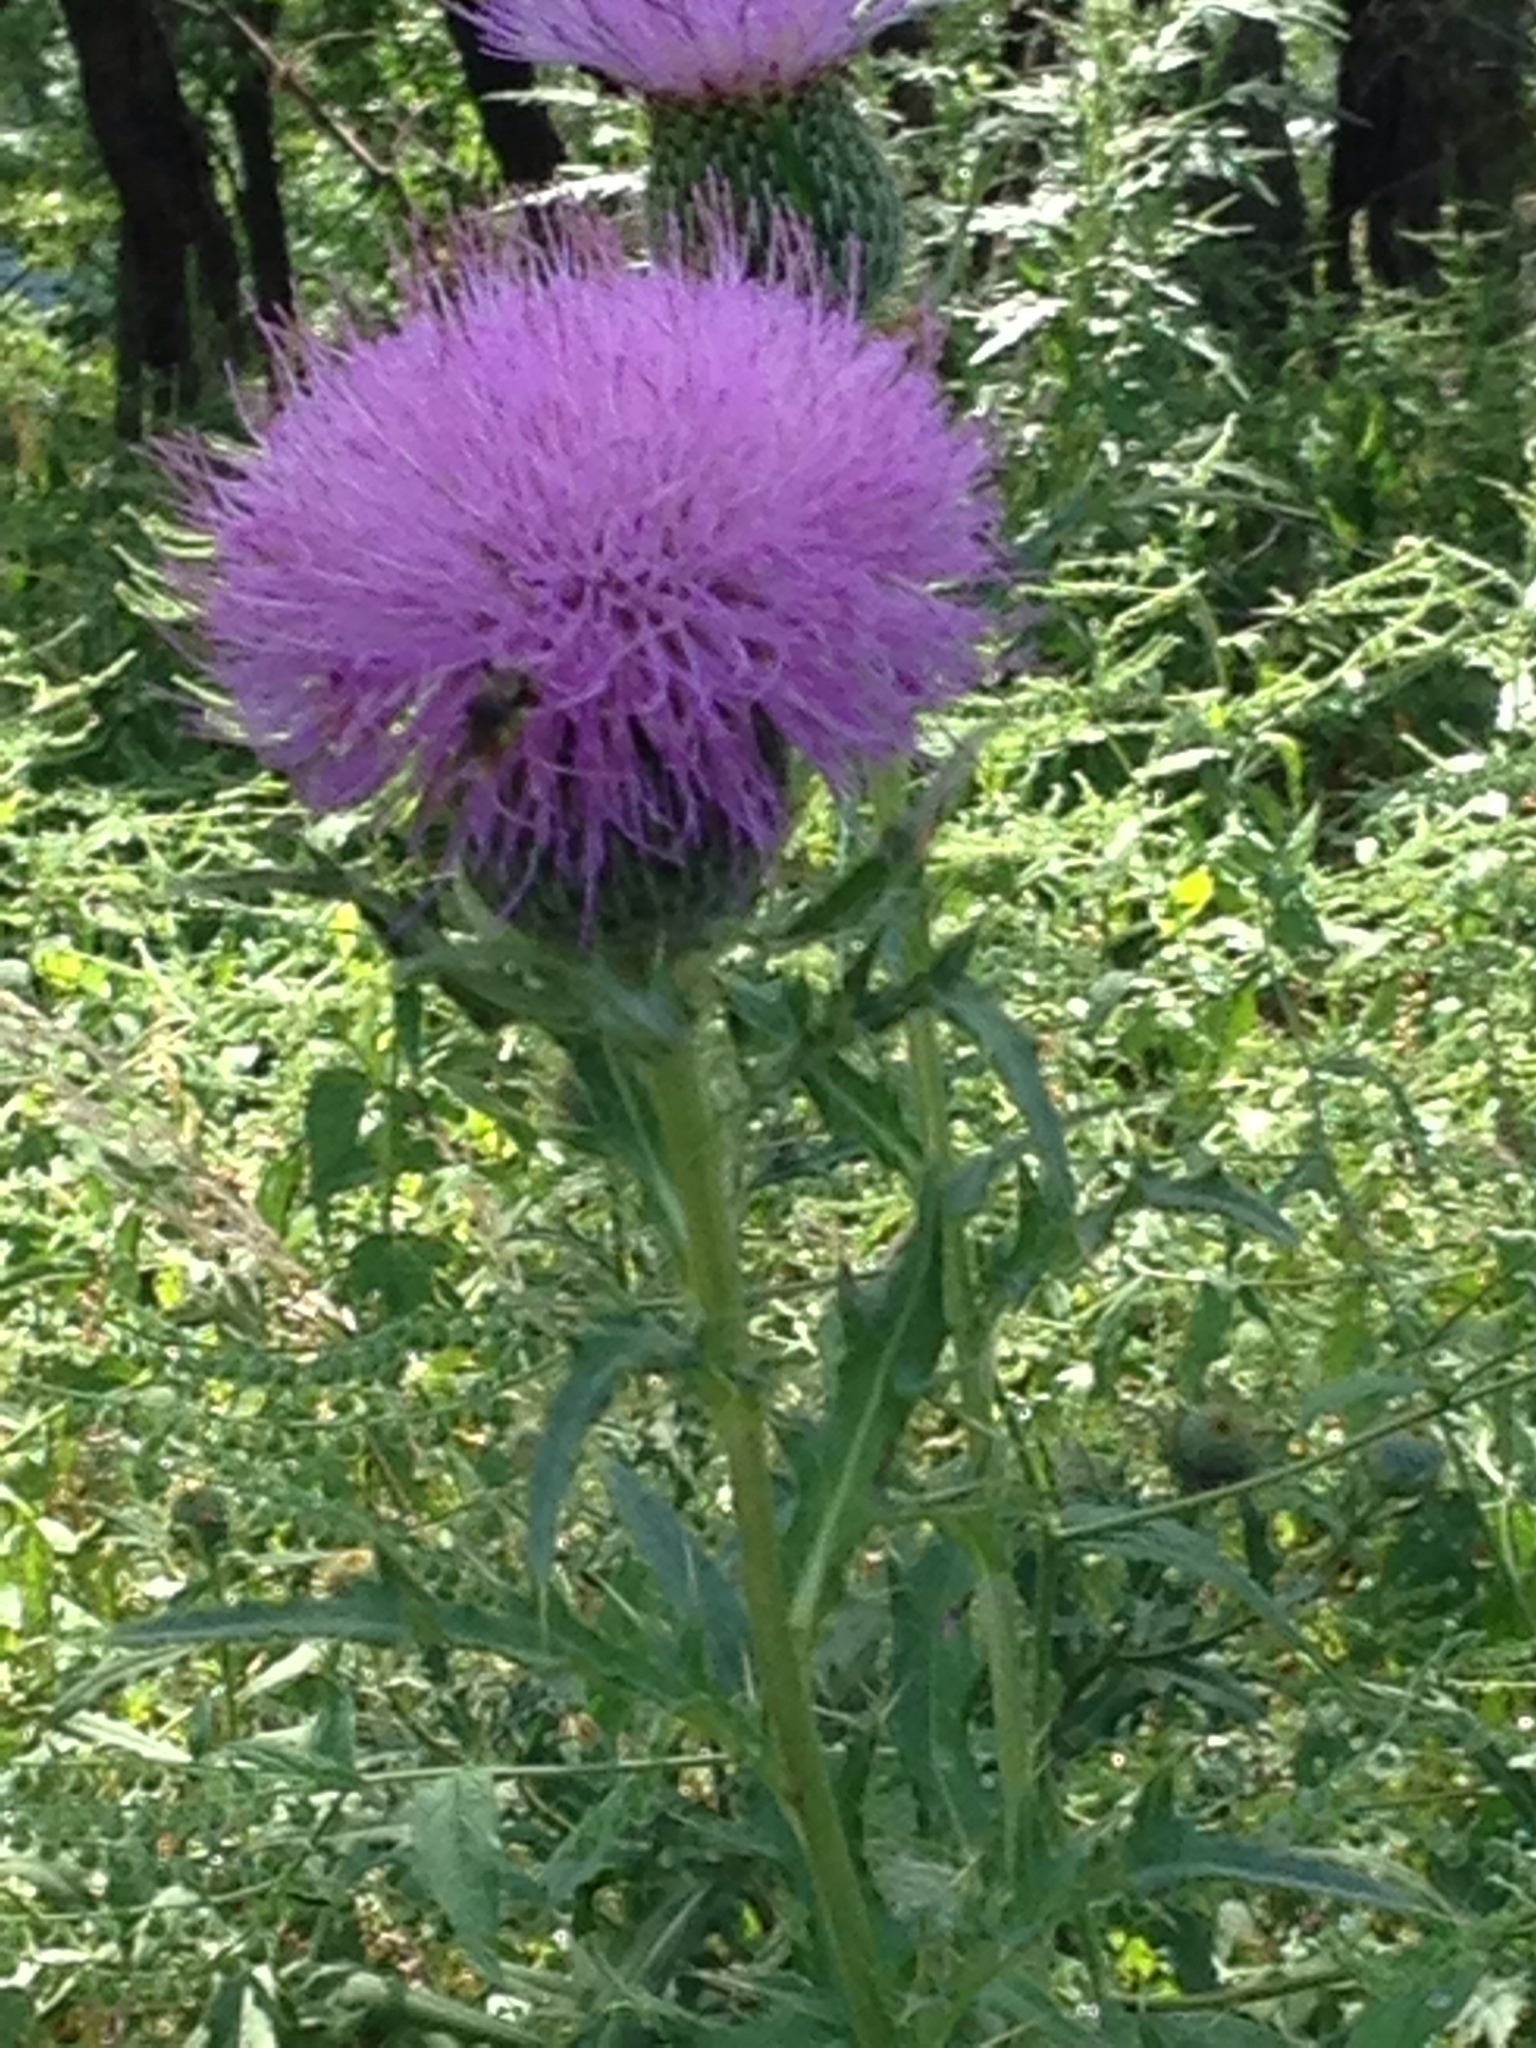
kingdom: Plantae
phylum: Tracheophyta
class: Magnoliopsida
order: Asterales
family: Asteraceae
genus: Cirsium
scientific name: Cirsium discolor
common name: Field thistle
